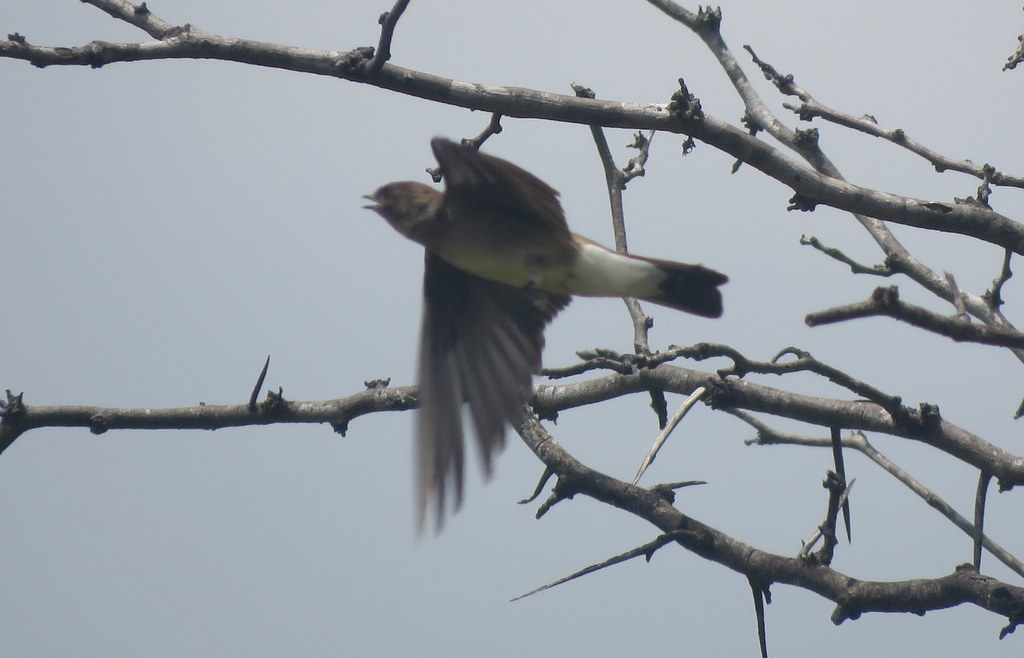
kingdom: Animalia
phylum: Chordata
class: Aves
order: Passeriformes
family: Hirundinidae
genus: Alopochelidon
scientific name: Alopochelidon fucata
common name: Tawny-headed swallow
